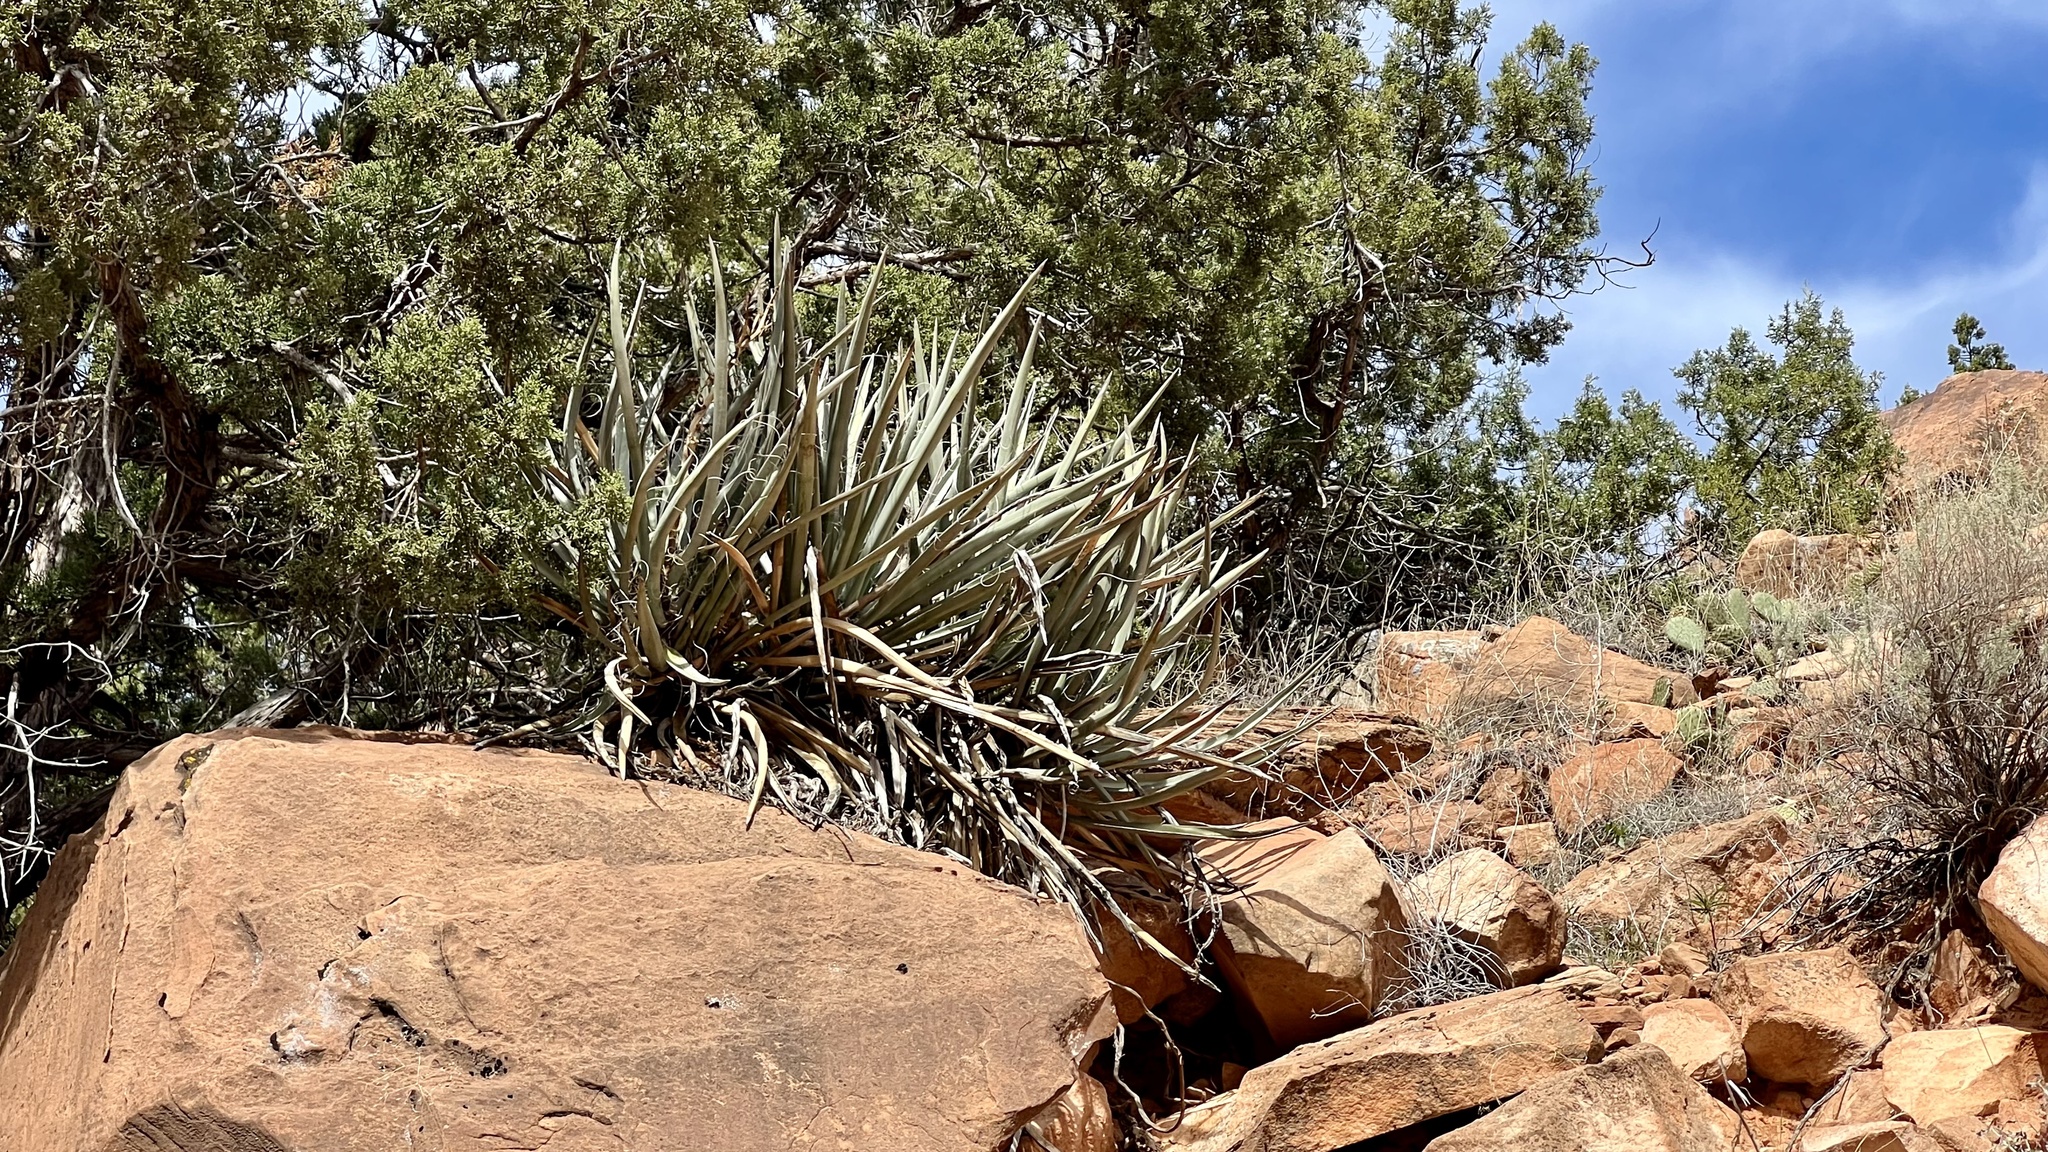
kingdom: Plantae
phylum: Tracheophyta
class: Liliopsida
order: Asparagales
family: Asparagaceae
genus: Yucca
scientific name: Yucca baccata
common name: Banana yucca
